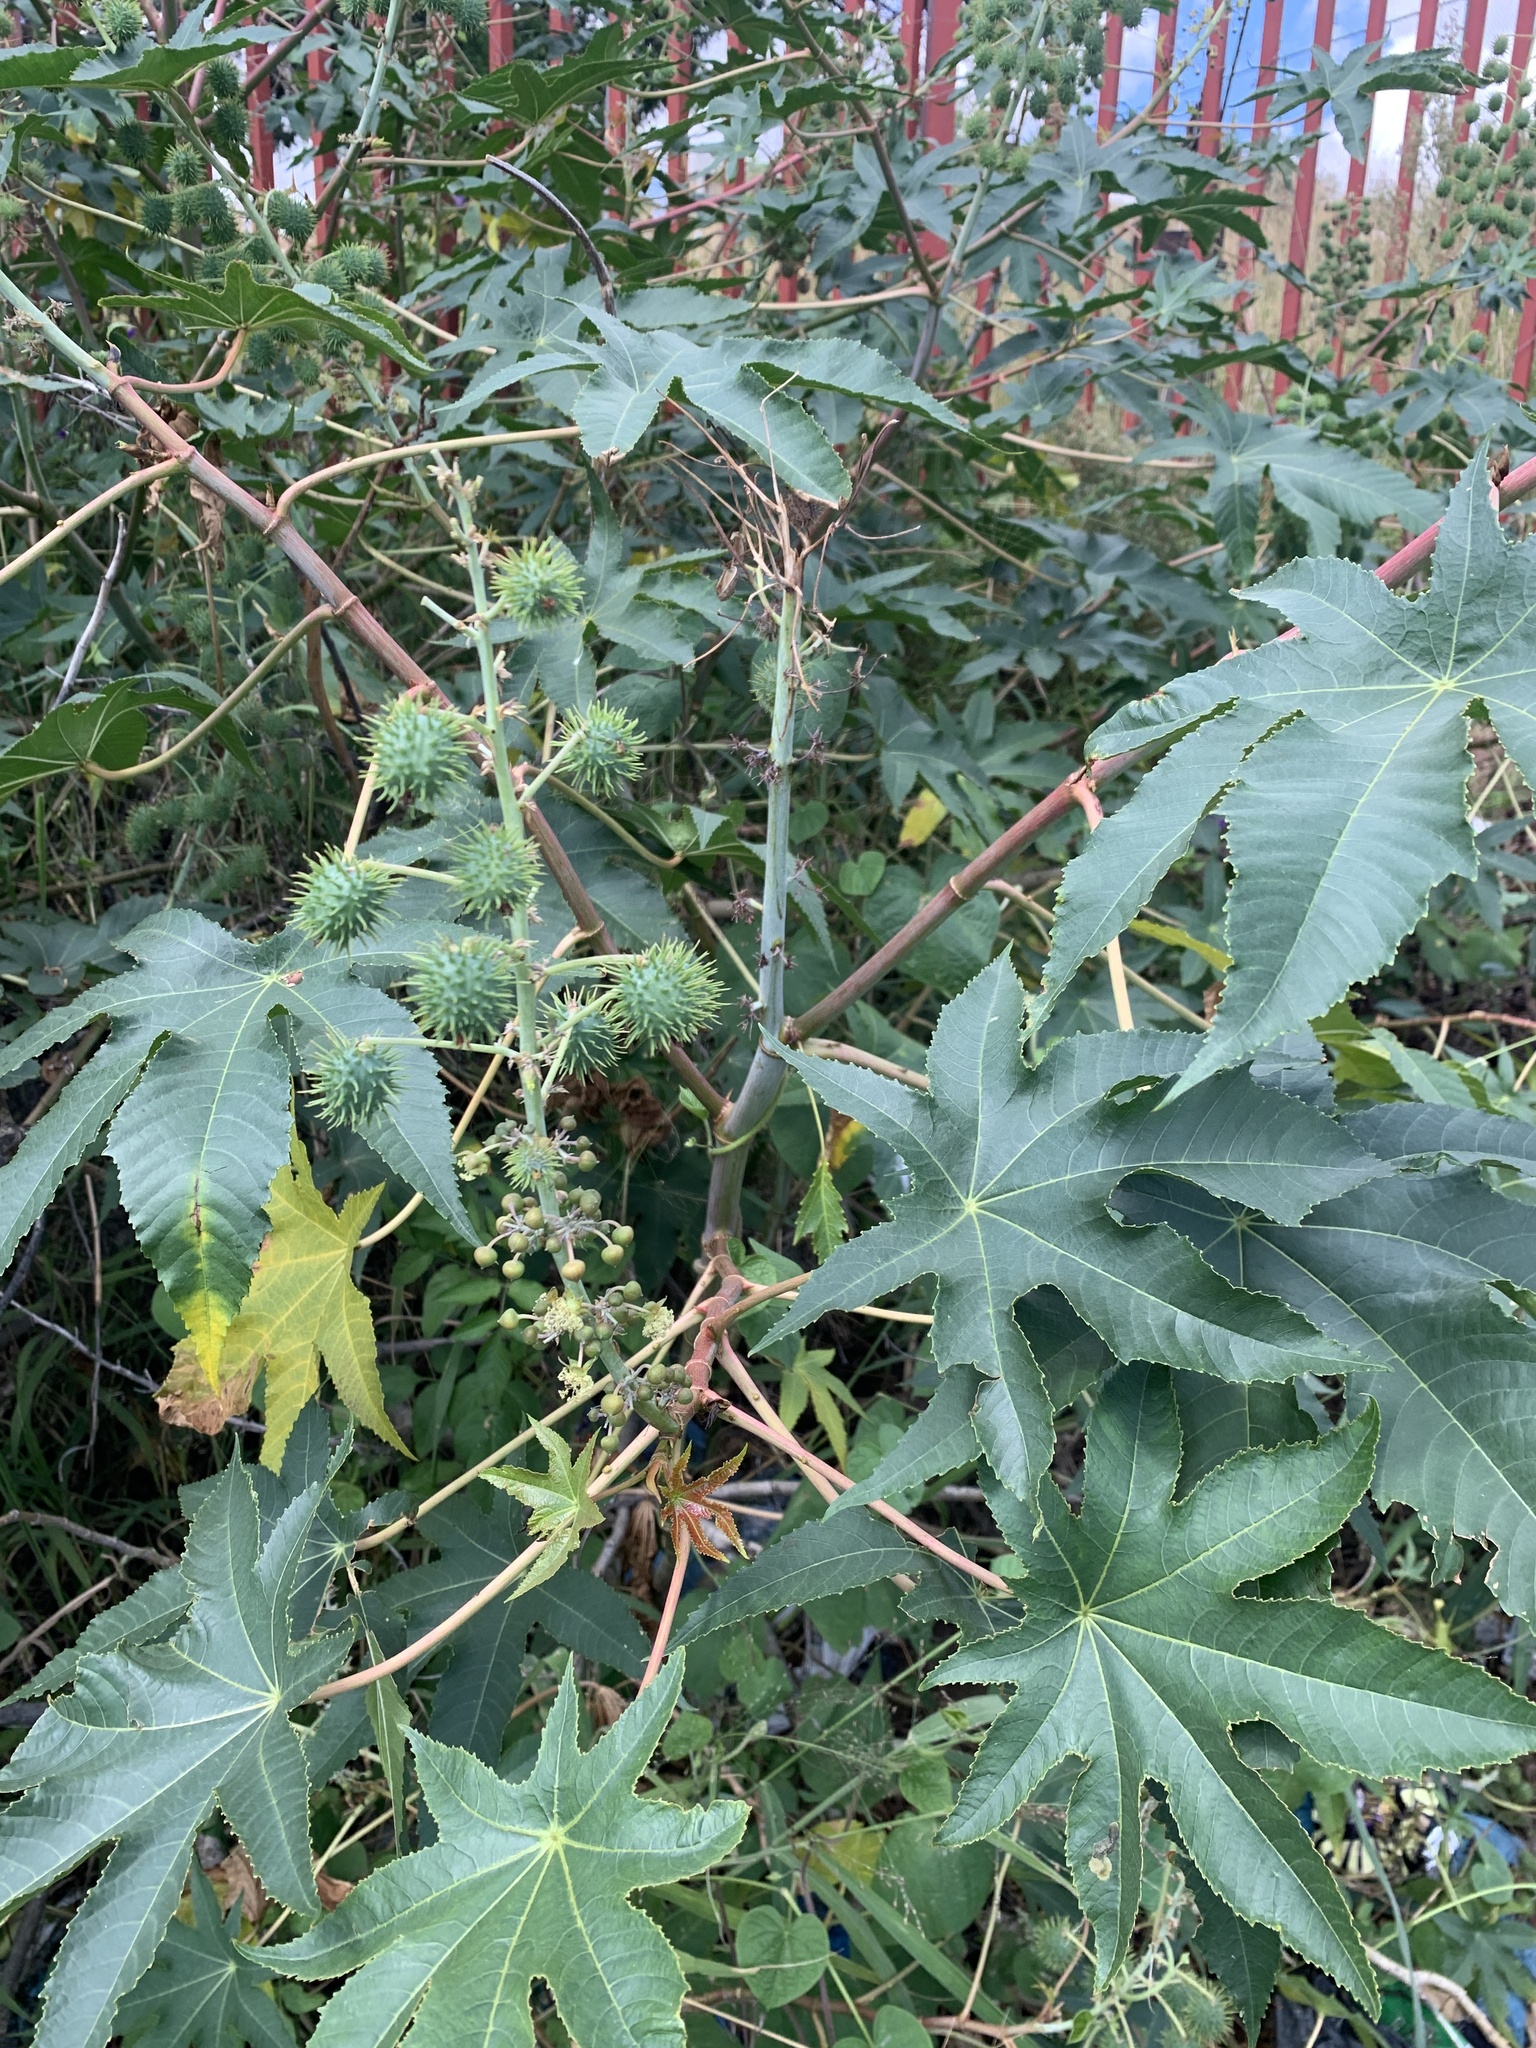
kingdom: Plantae
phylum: Tracheophyta
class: Magnoliopsida
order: Malpighiales
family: Euphorbiaceae
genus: Ricinus
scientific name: Ricinus communis
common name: Castor-oil-plant
